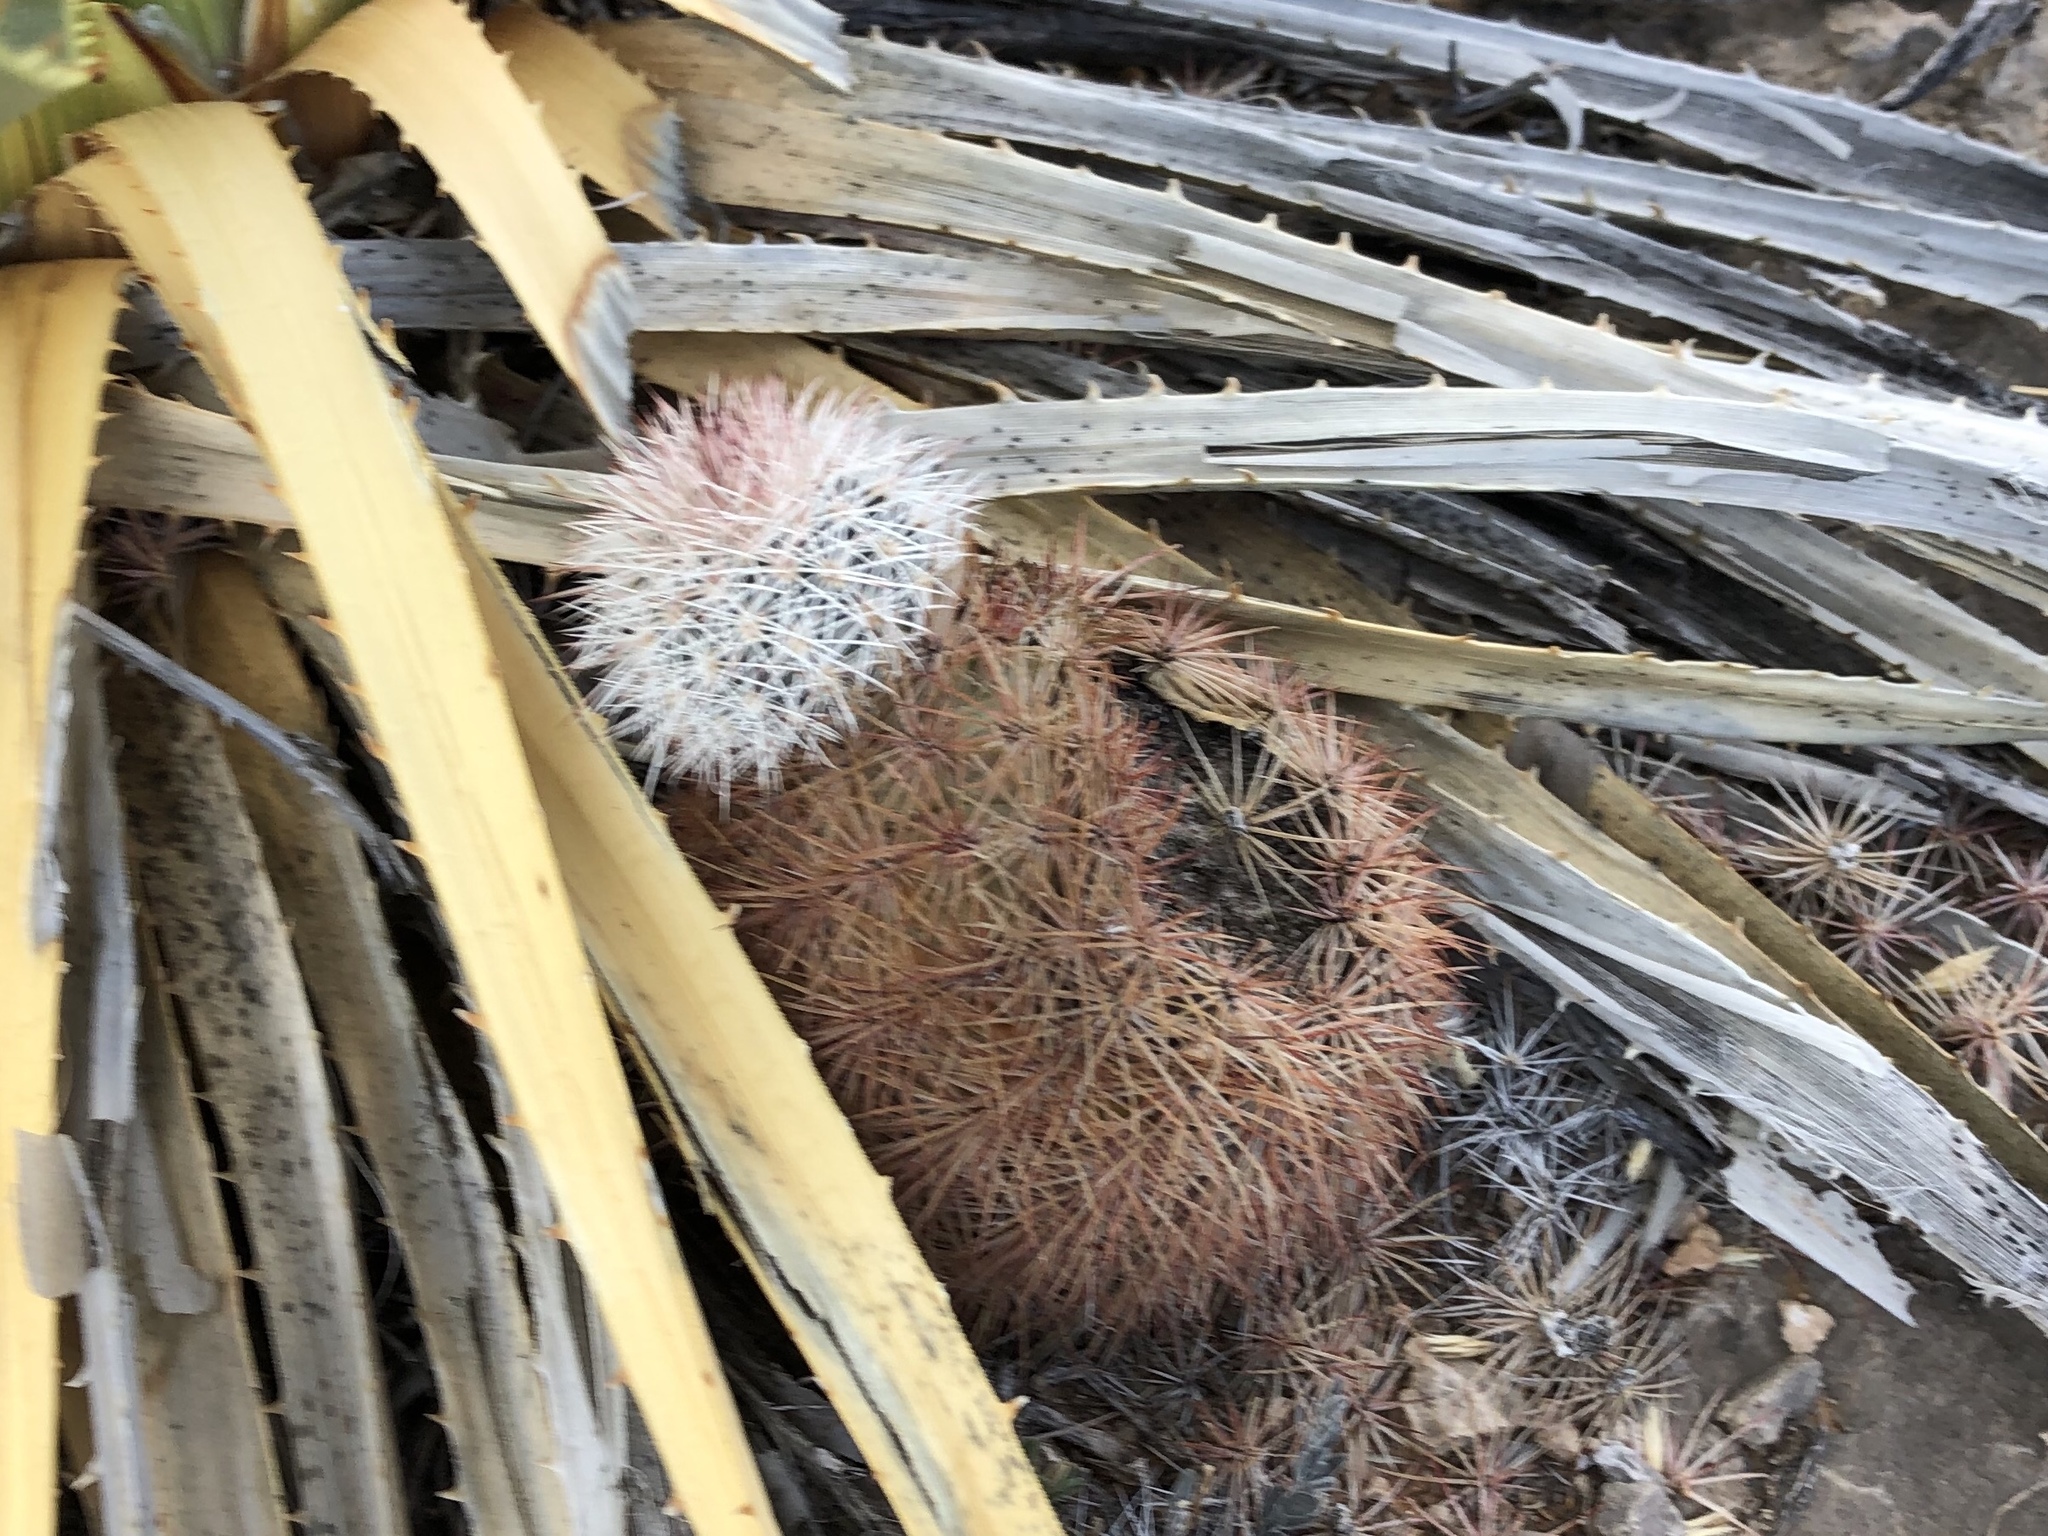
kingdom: Plantae
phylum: Tracheophyta
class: Magnoliopsida
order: Caryophyllales
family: Cactaceae
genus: Echinocereus
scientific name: Echinocereus dasyacanthus
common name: Spiny hedgehog cactus
